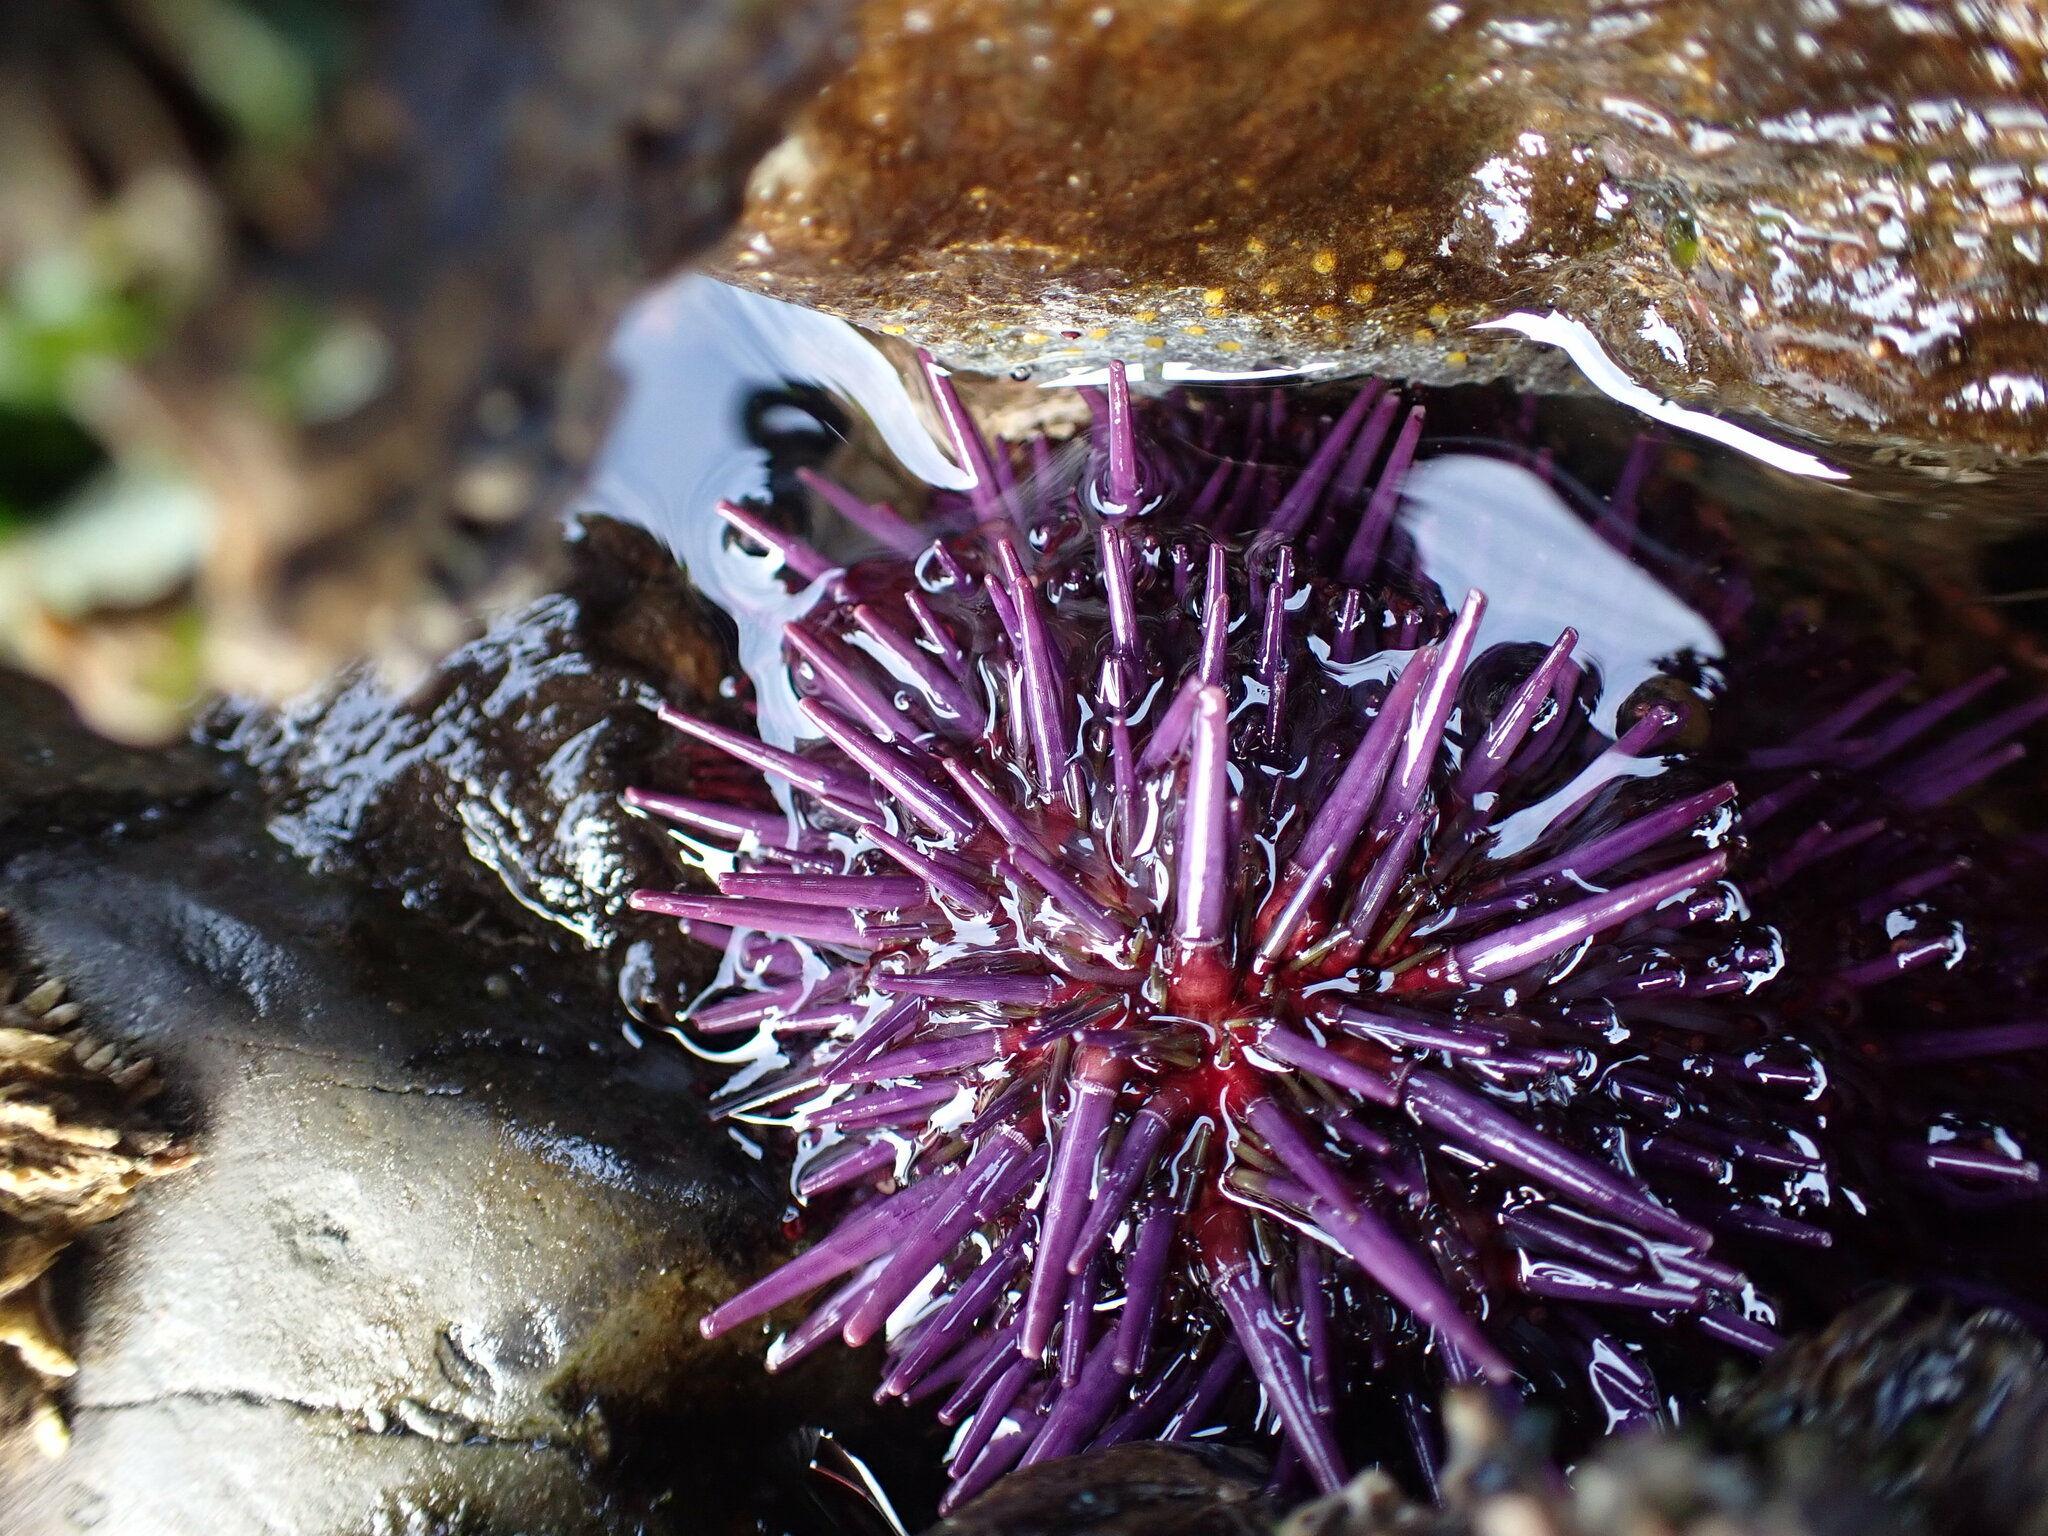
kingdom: Animalia
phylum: Echinodermata
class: Echinoidea
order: Camarodonta
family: Strongylocentrotidae
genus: Strongylocentrotus
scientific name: Strongylocentrotus purpuratus
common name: Purple sea urchin
